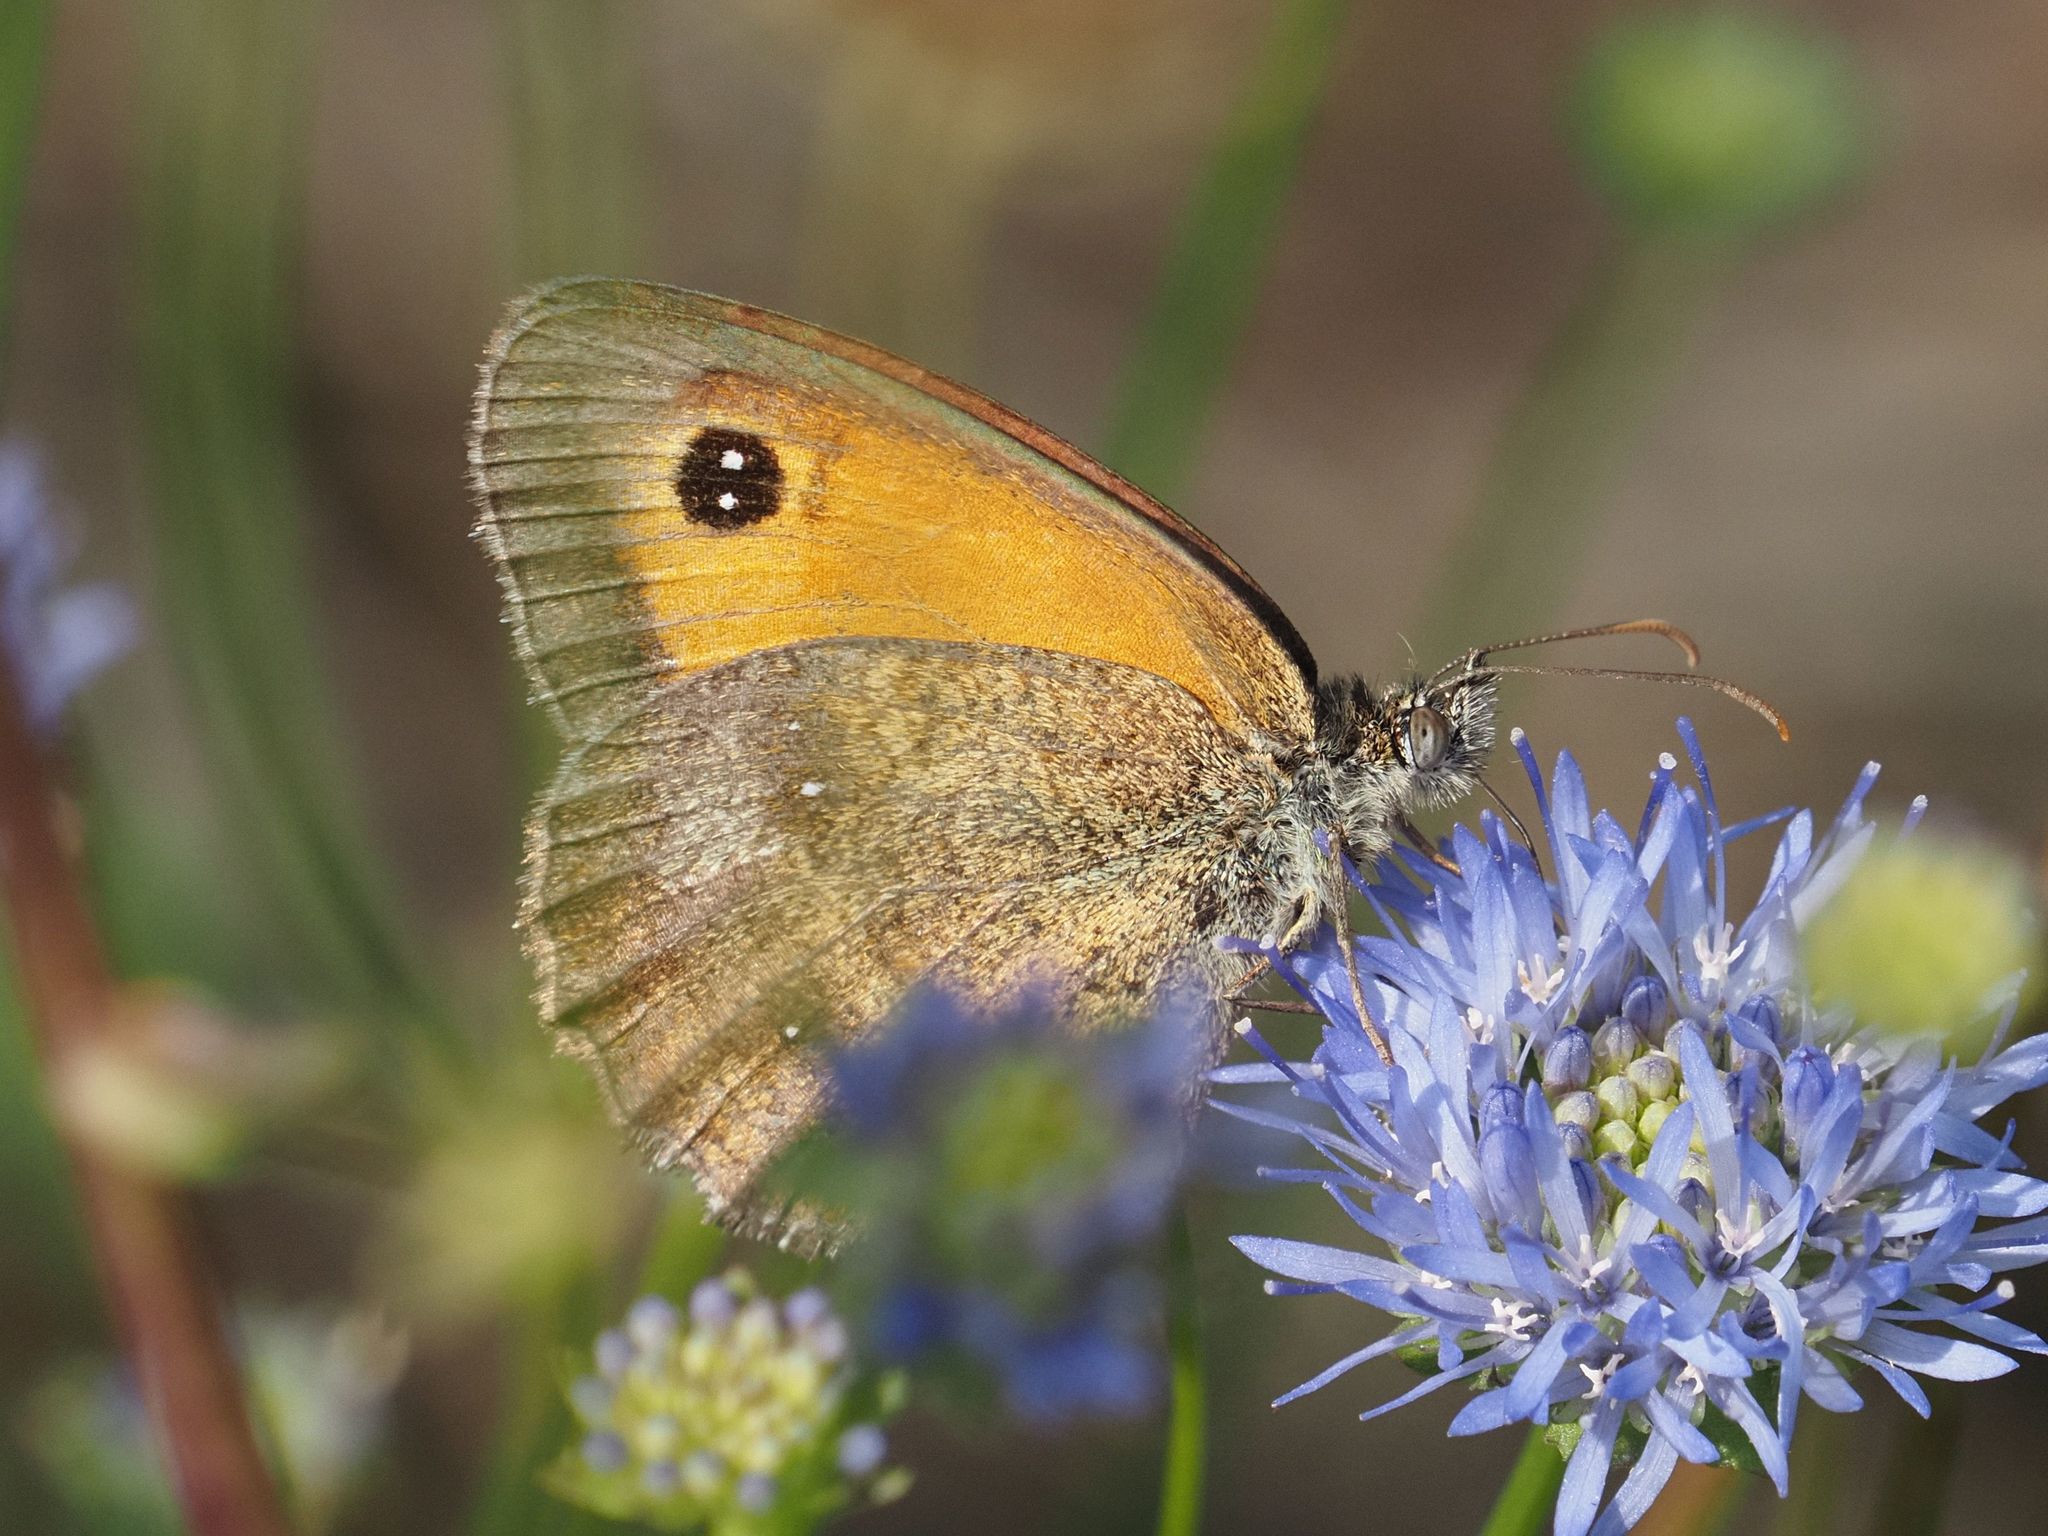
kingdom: Animalia
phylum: Arthropoda
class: Insecta
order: Lepidoptera
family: Nymphalidae
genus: Pyronia
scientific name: Pyronia tithonus
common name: Gatekeeper
